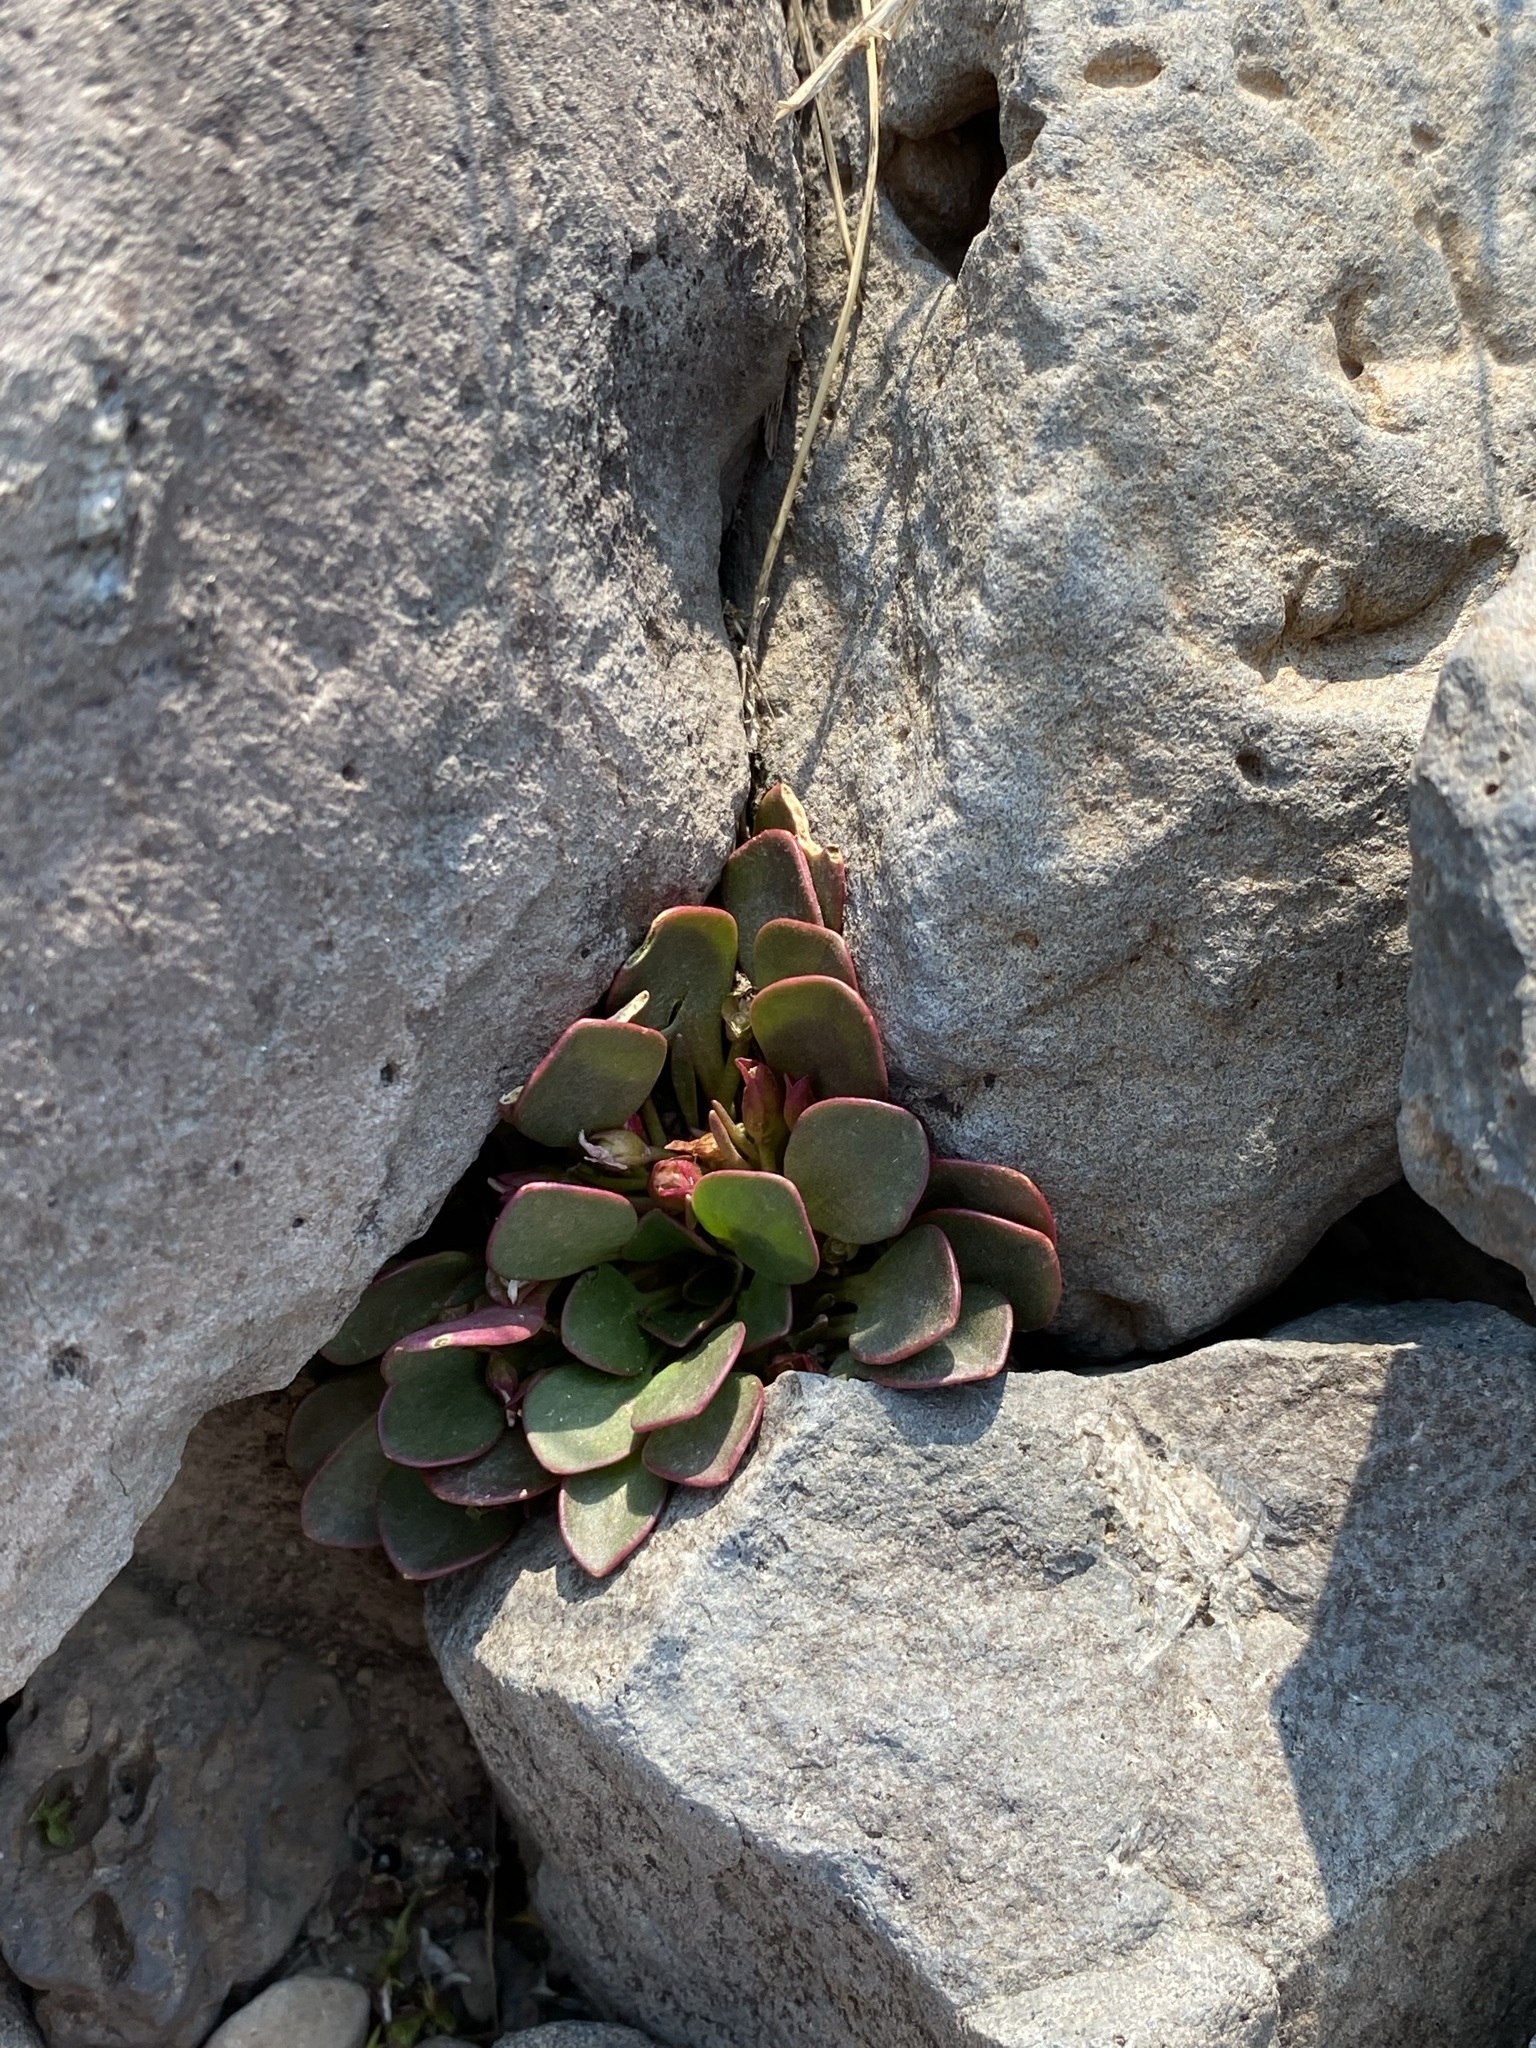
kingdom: Plantae
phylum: Tracheophyta
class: Magnoliopsida
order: Caryophyllales
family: Montiaceae
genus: Claytonia
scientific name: Claytonia megarhiza
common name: Alpine spring beauty
